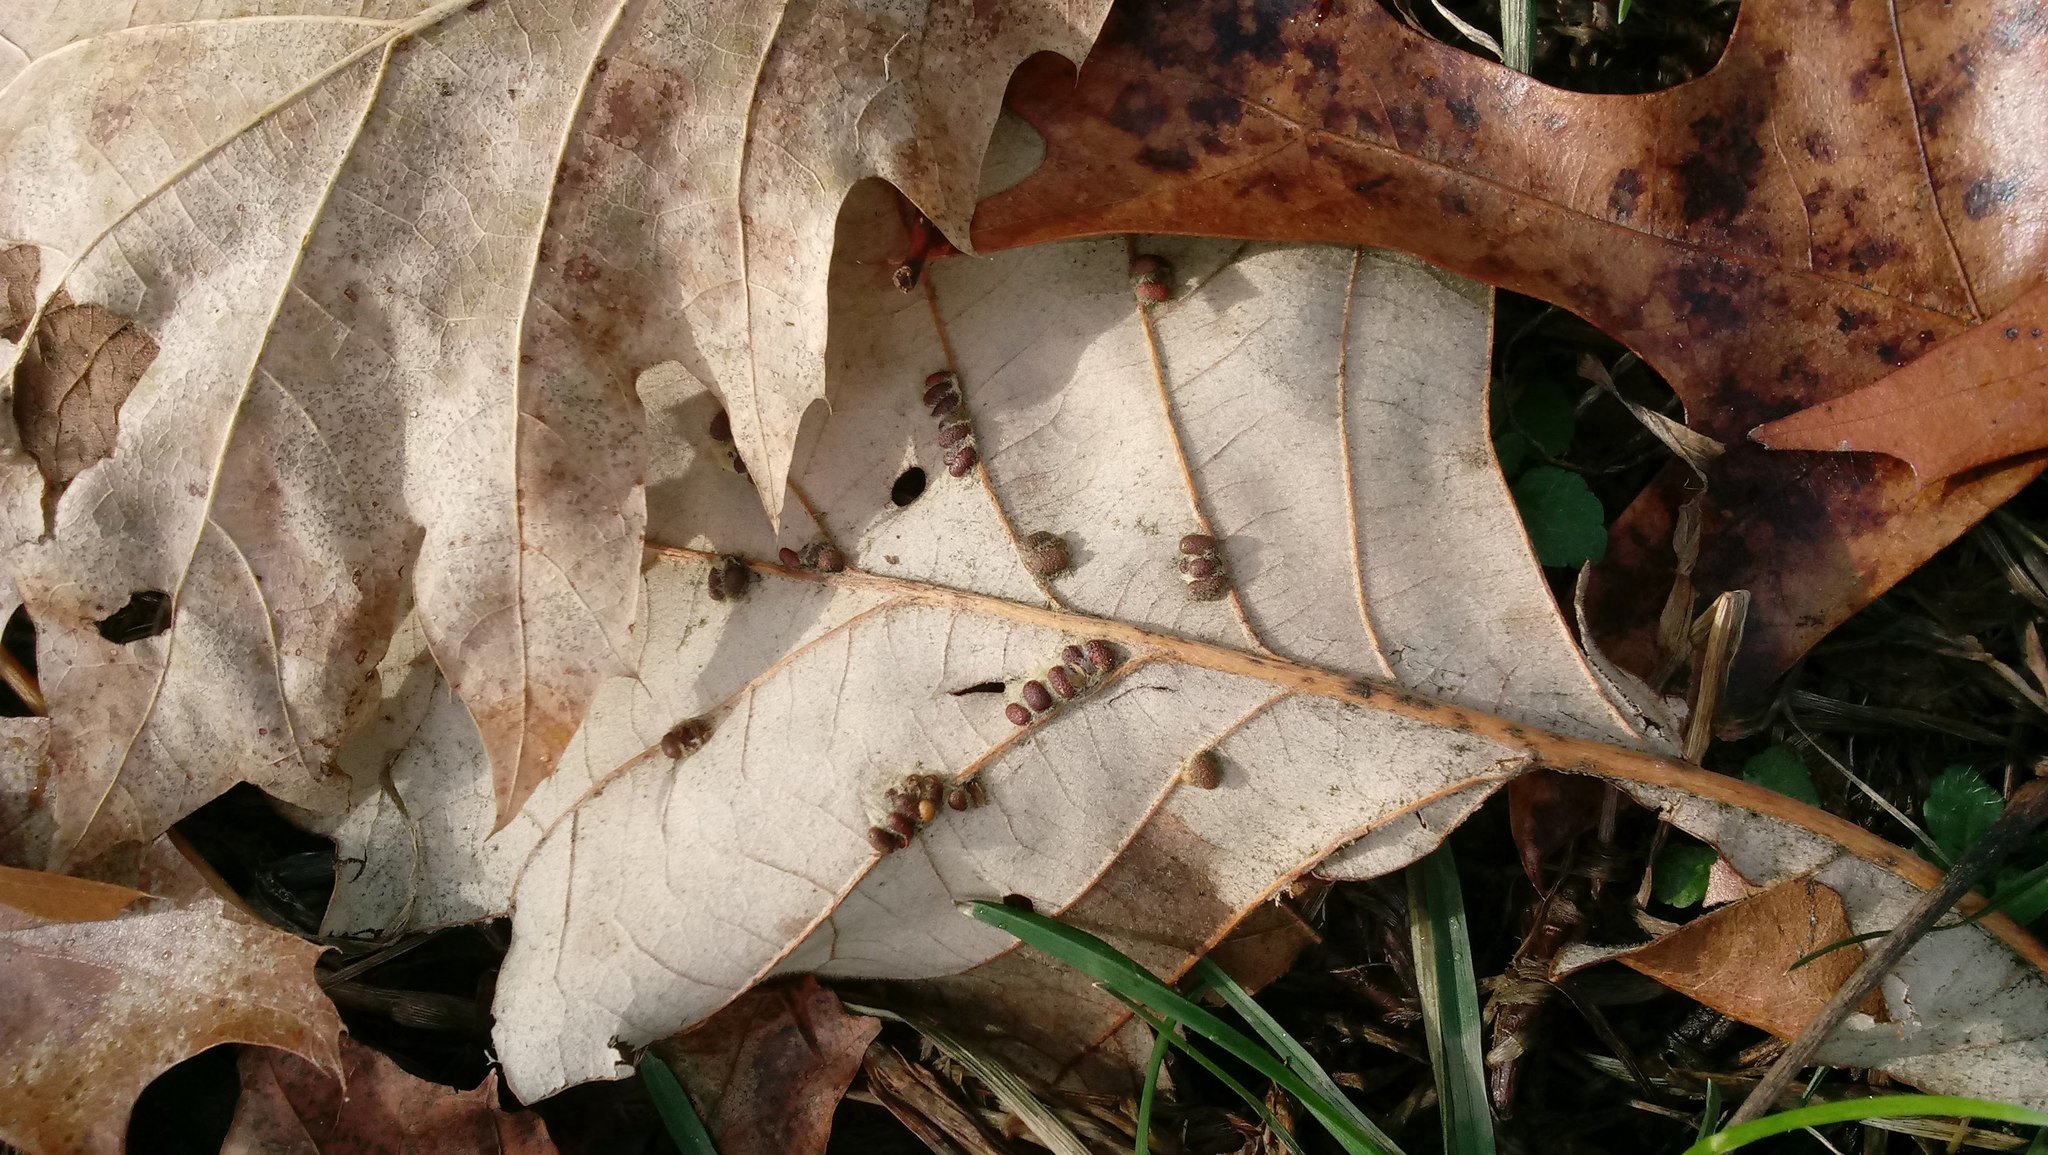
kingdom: Animalia
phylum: Arthropoda
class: Insecta
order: Hymenoptera
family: Cynipidae
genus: Andricus
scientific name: Andricus Druon ignotum
